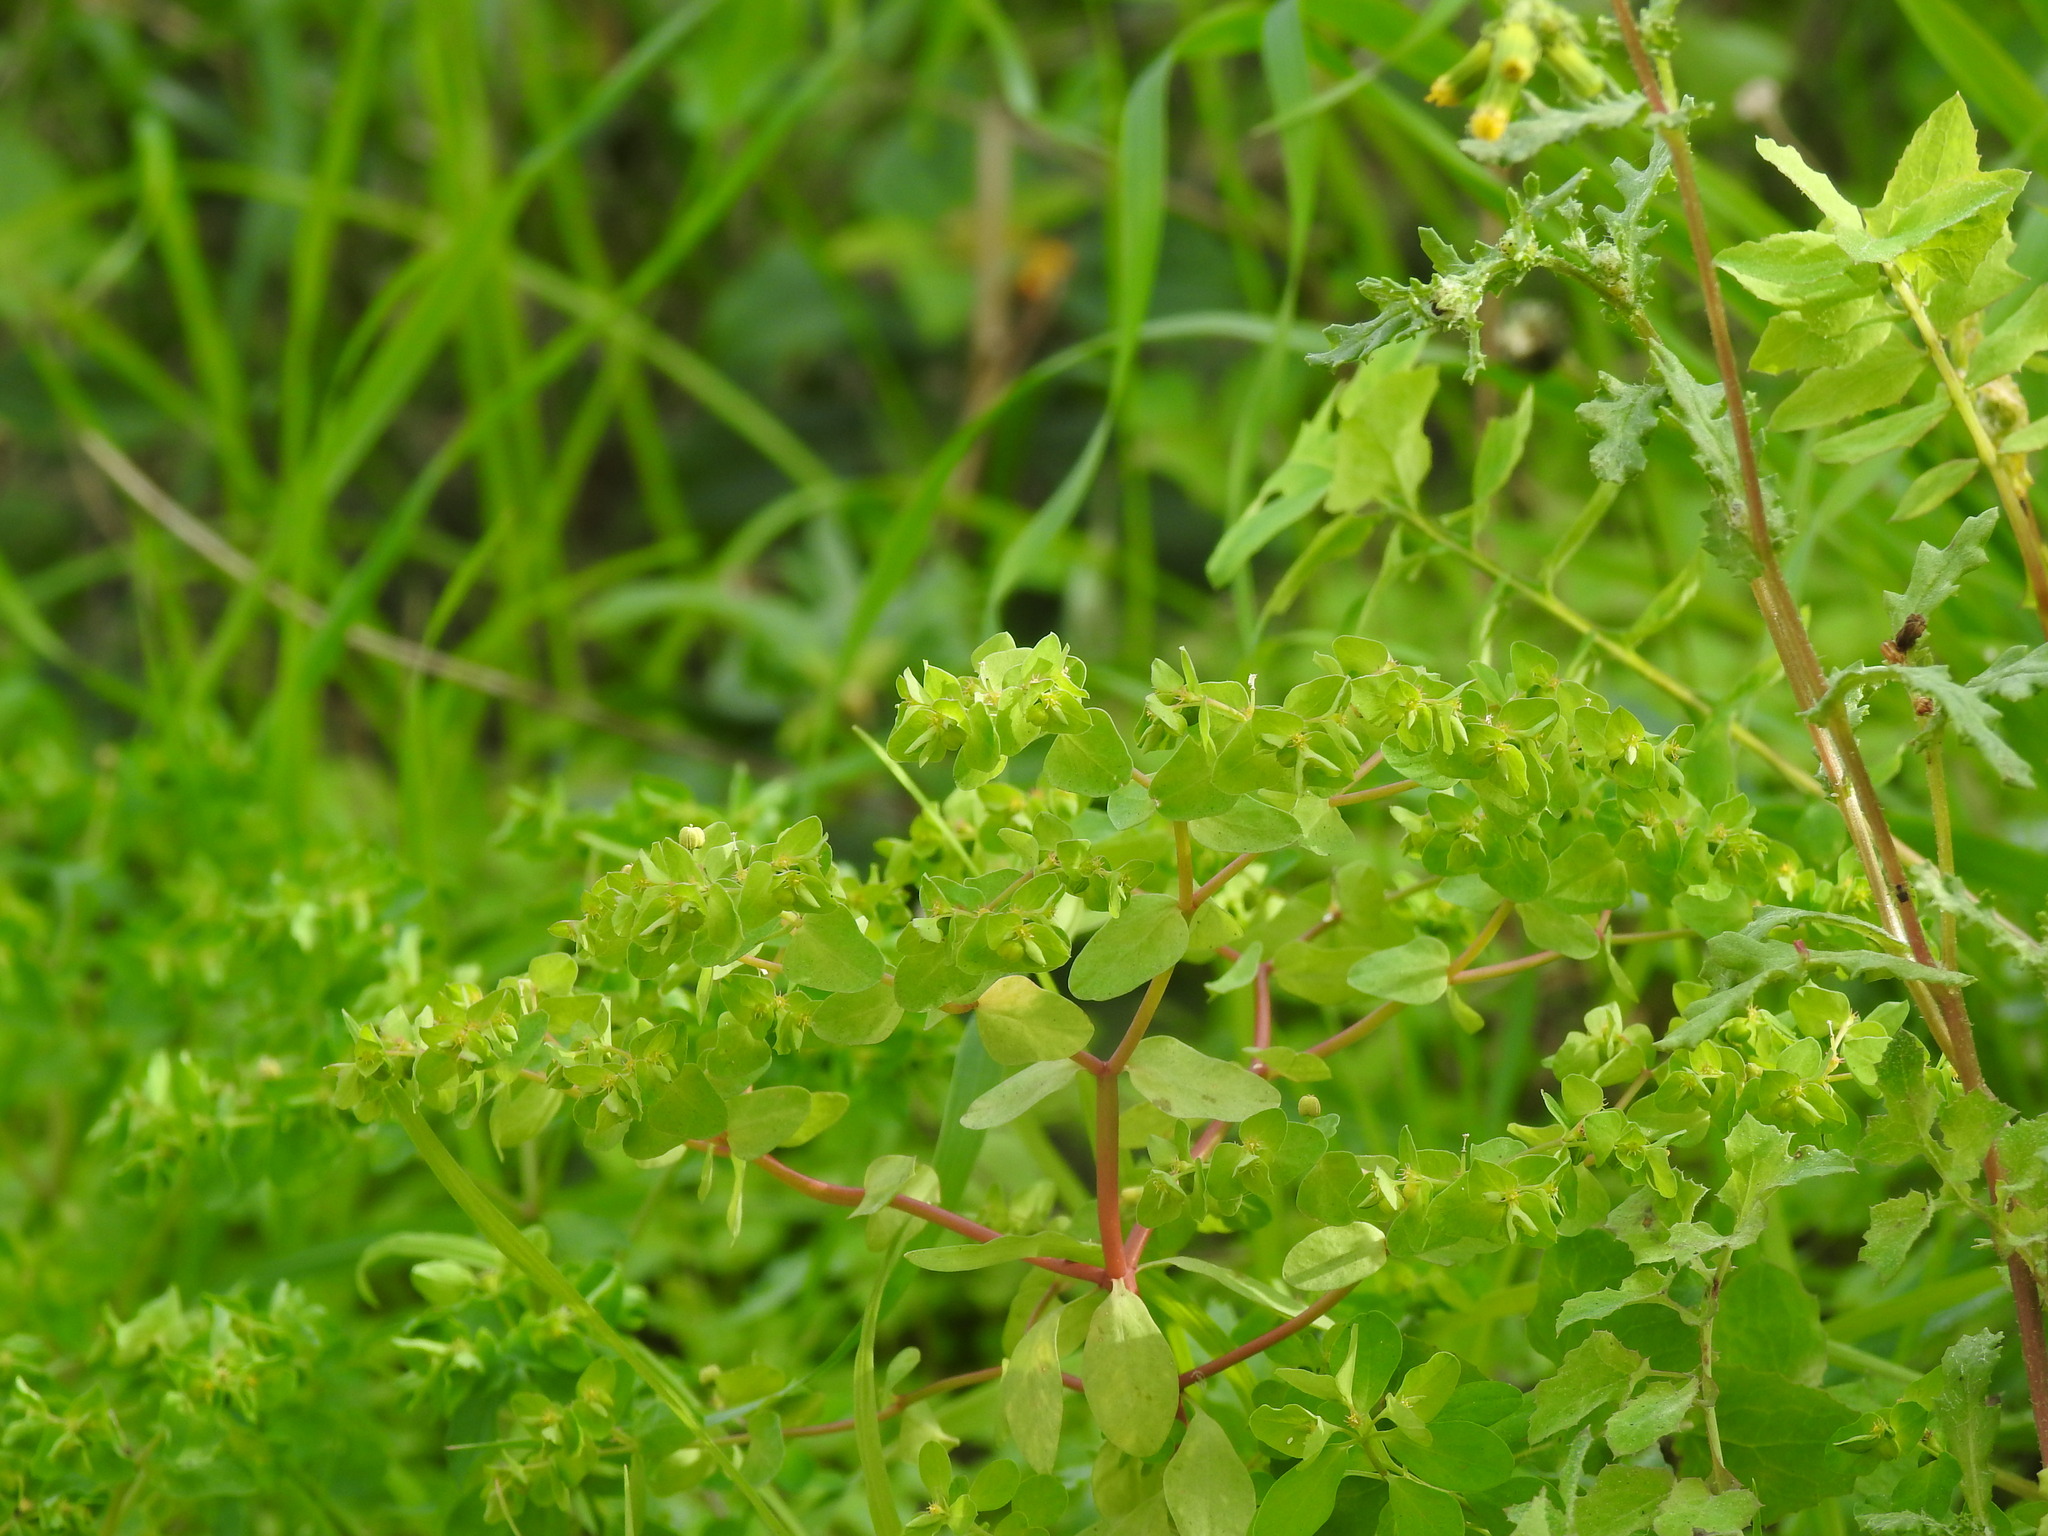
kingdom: Plantae
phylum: Tracheophyta
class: Magnoliopsida
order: Malpighiales
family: Euphorbiaceae
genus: Euphorbia
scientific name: Euphorbia peplus
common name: Petty spurge
